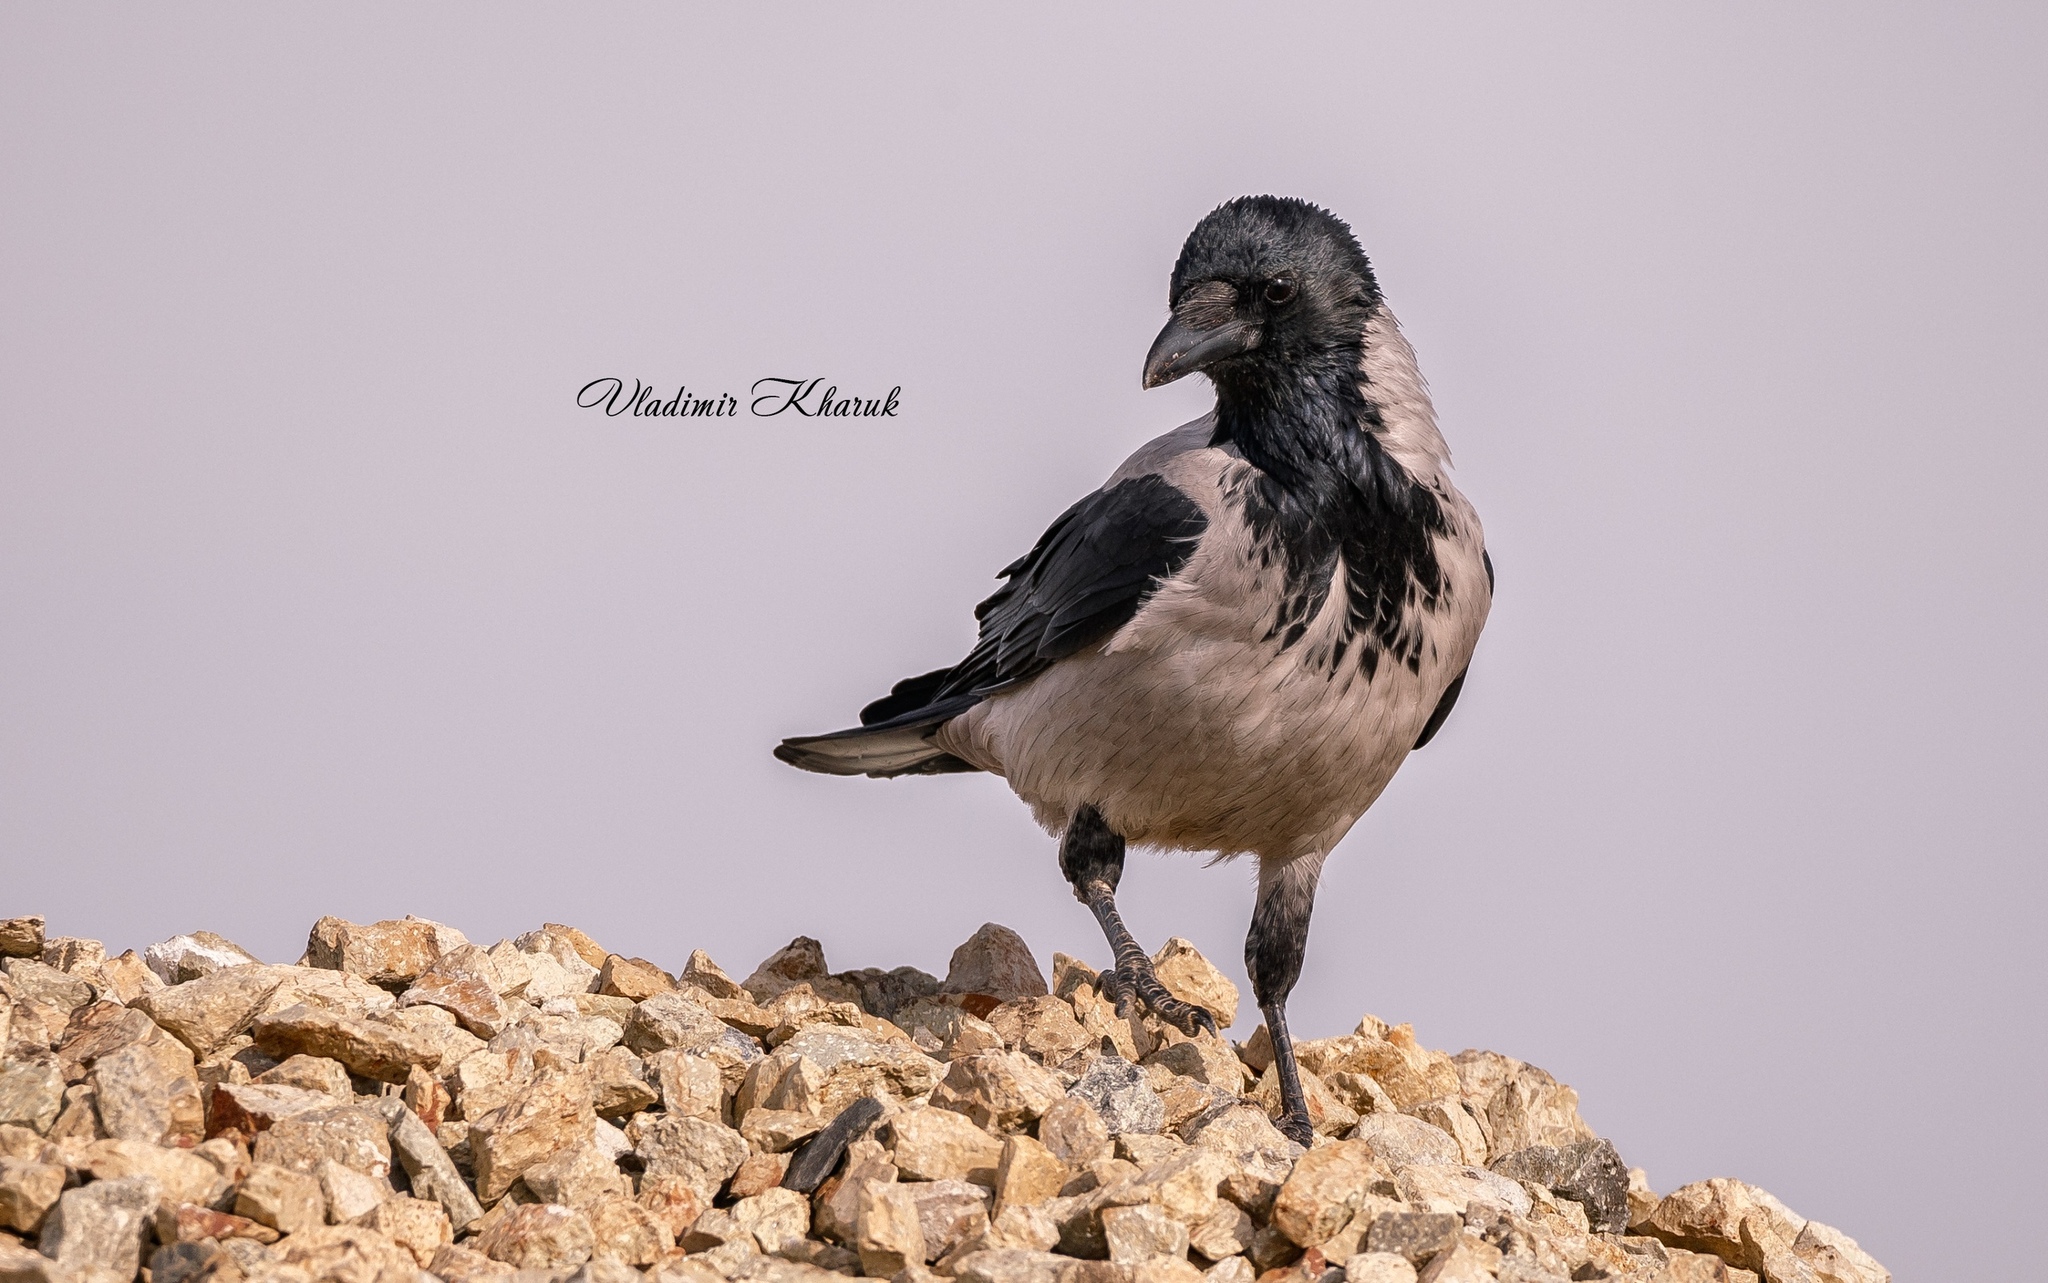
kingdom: Animalia
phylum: Chordata
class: Aves
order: Passeriformes
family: Corvidae
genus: Corvus
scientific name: Corvus cornix
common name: Hooded crow
